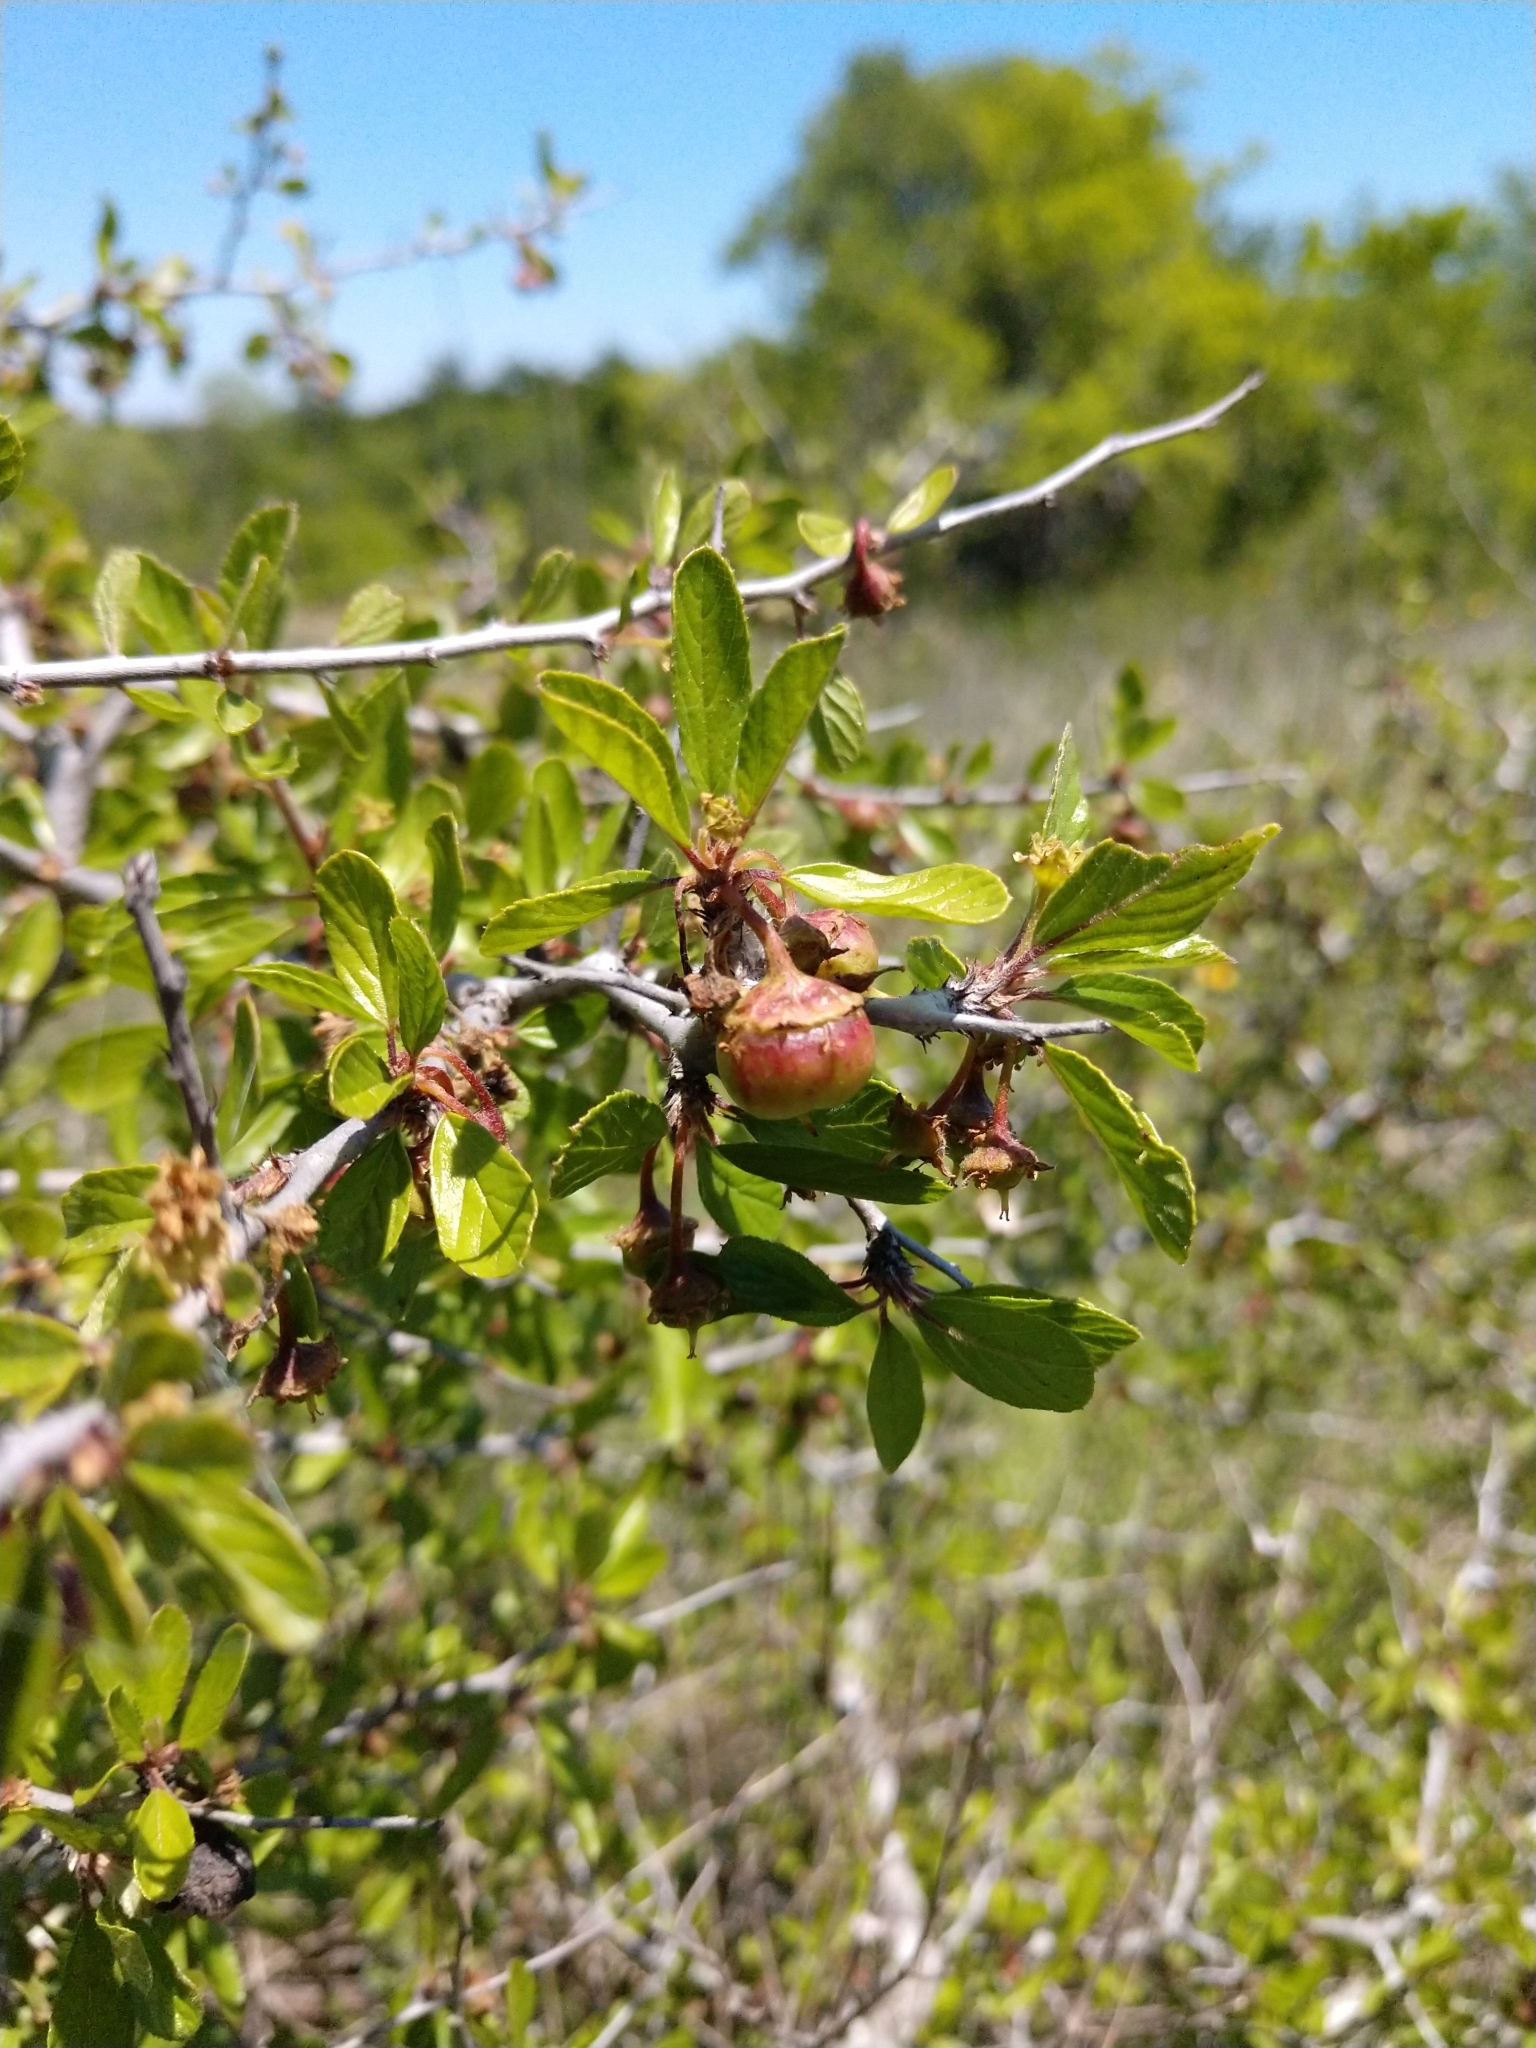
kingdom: Plantae
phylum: Tracheophyta
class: Magnoliopsida
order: Rosales
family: Rhamnaceae
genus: Colubrina
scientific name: Colubrina texensis
